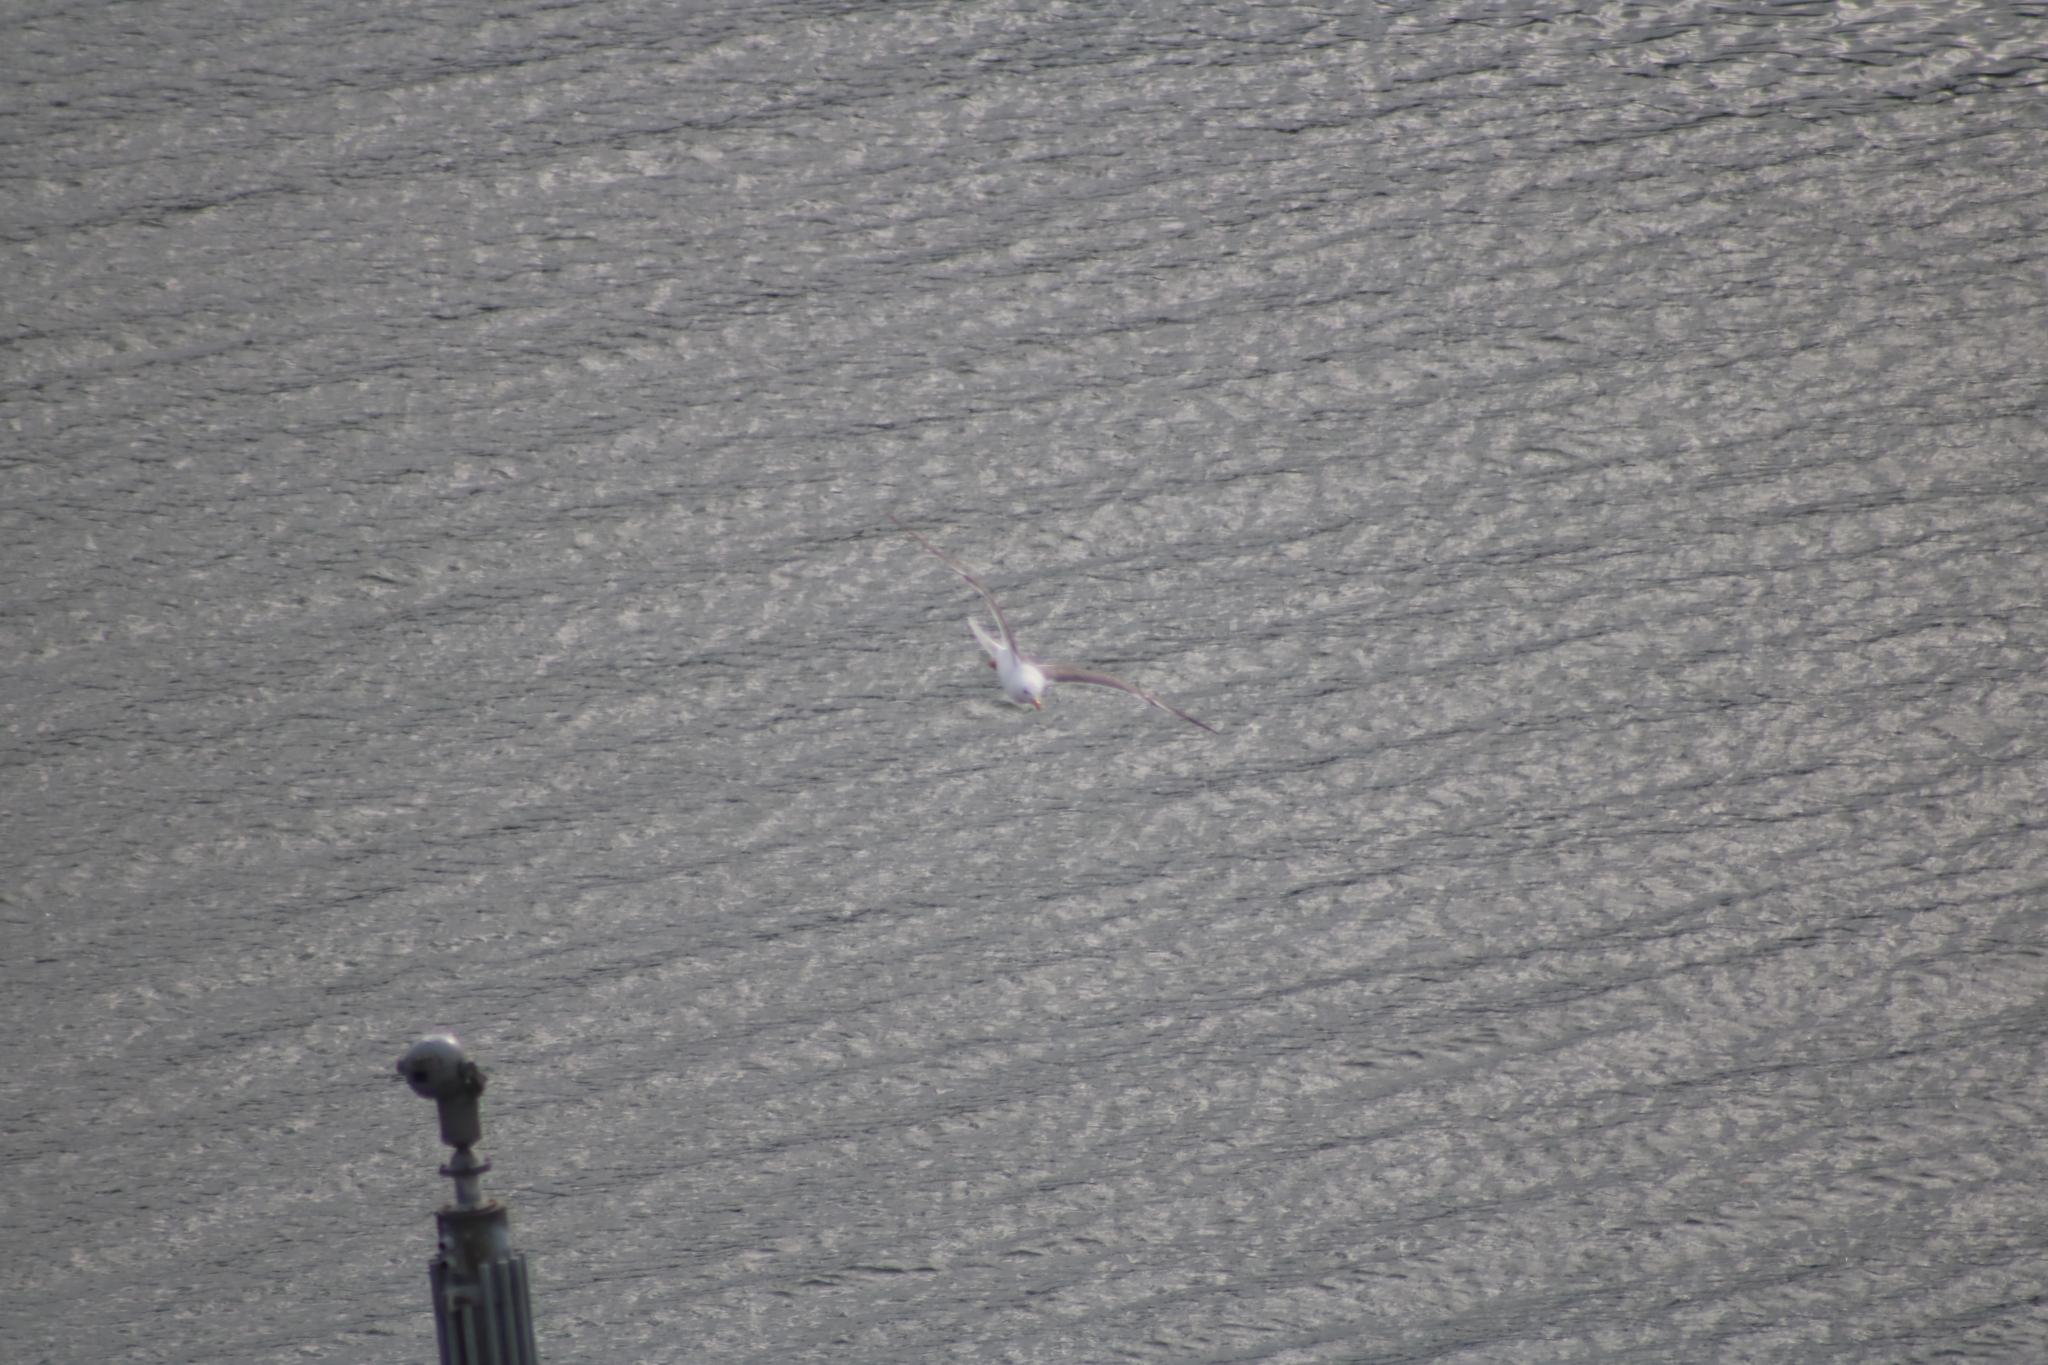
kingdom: Animalia
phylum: Chordata
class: Aves
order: Charadriiformes
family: Laridae
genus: Larus
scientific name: Larus fuscus
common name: Lesser black-backed gull
